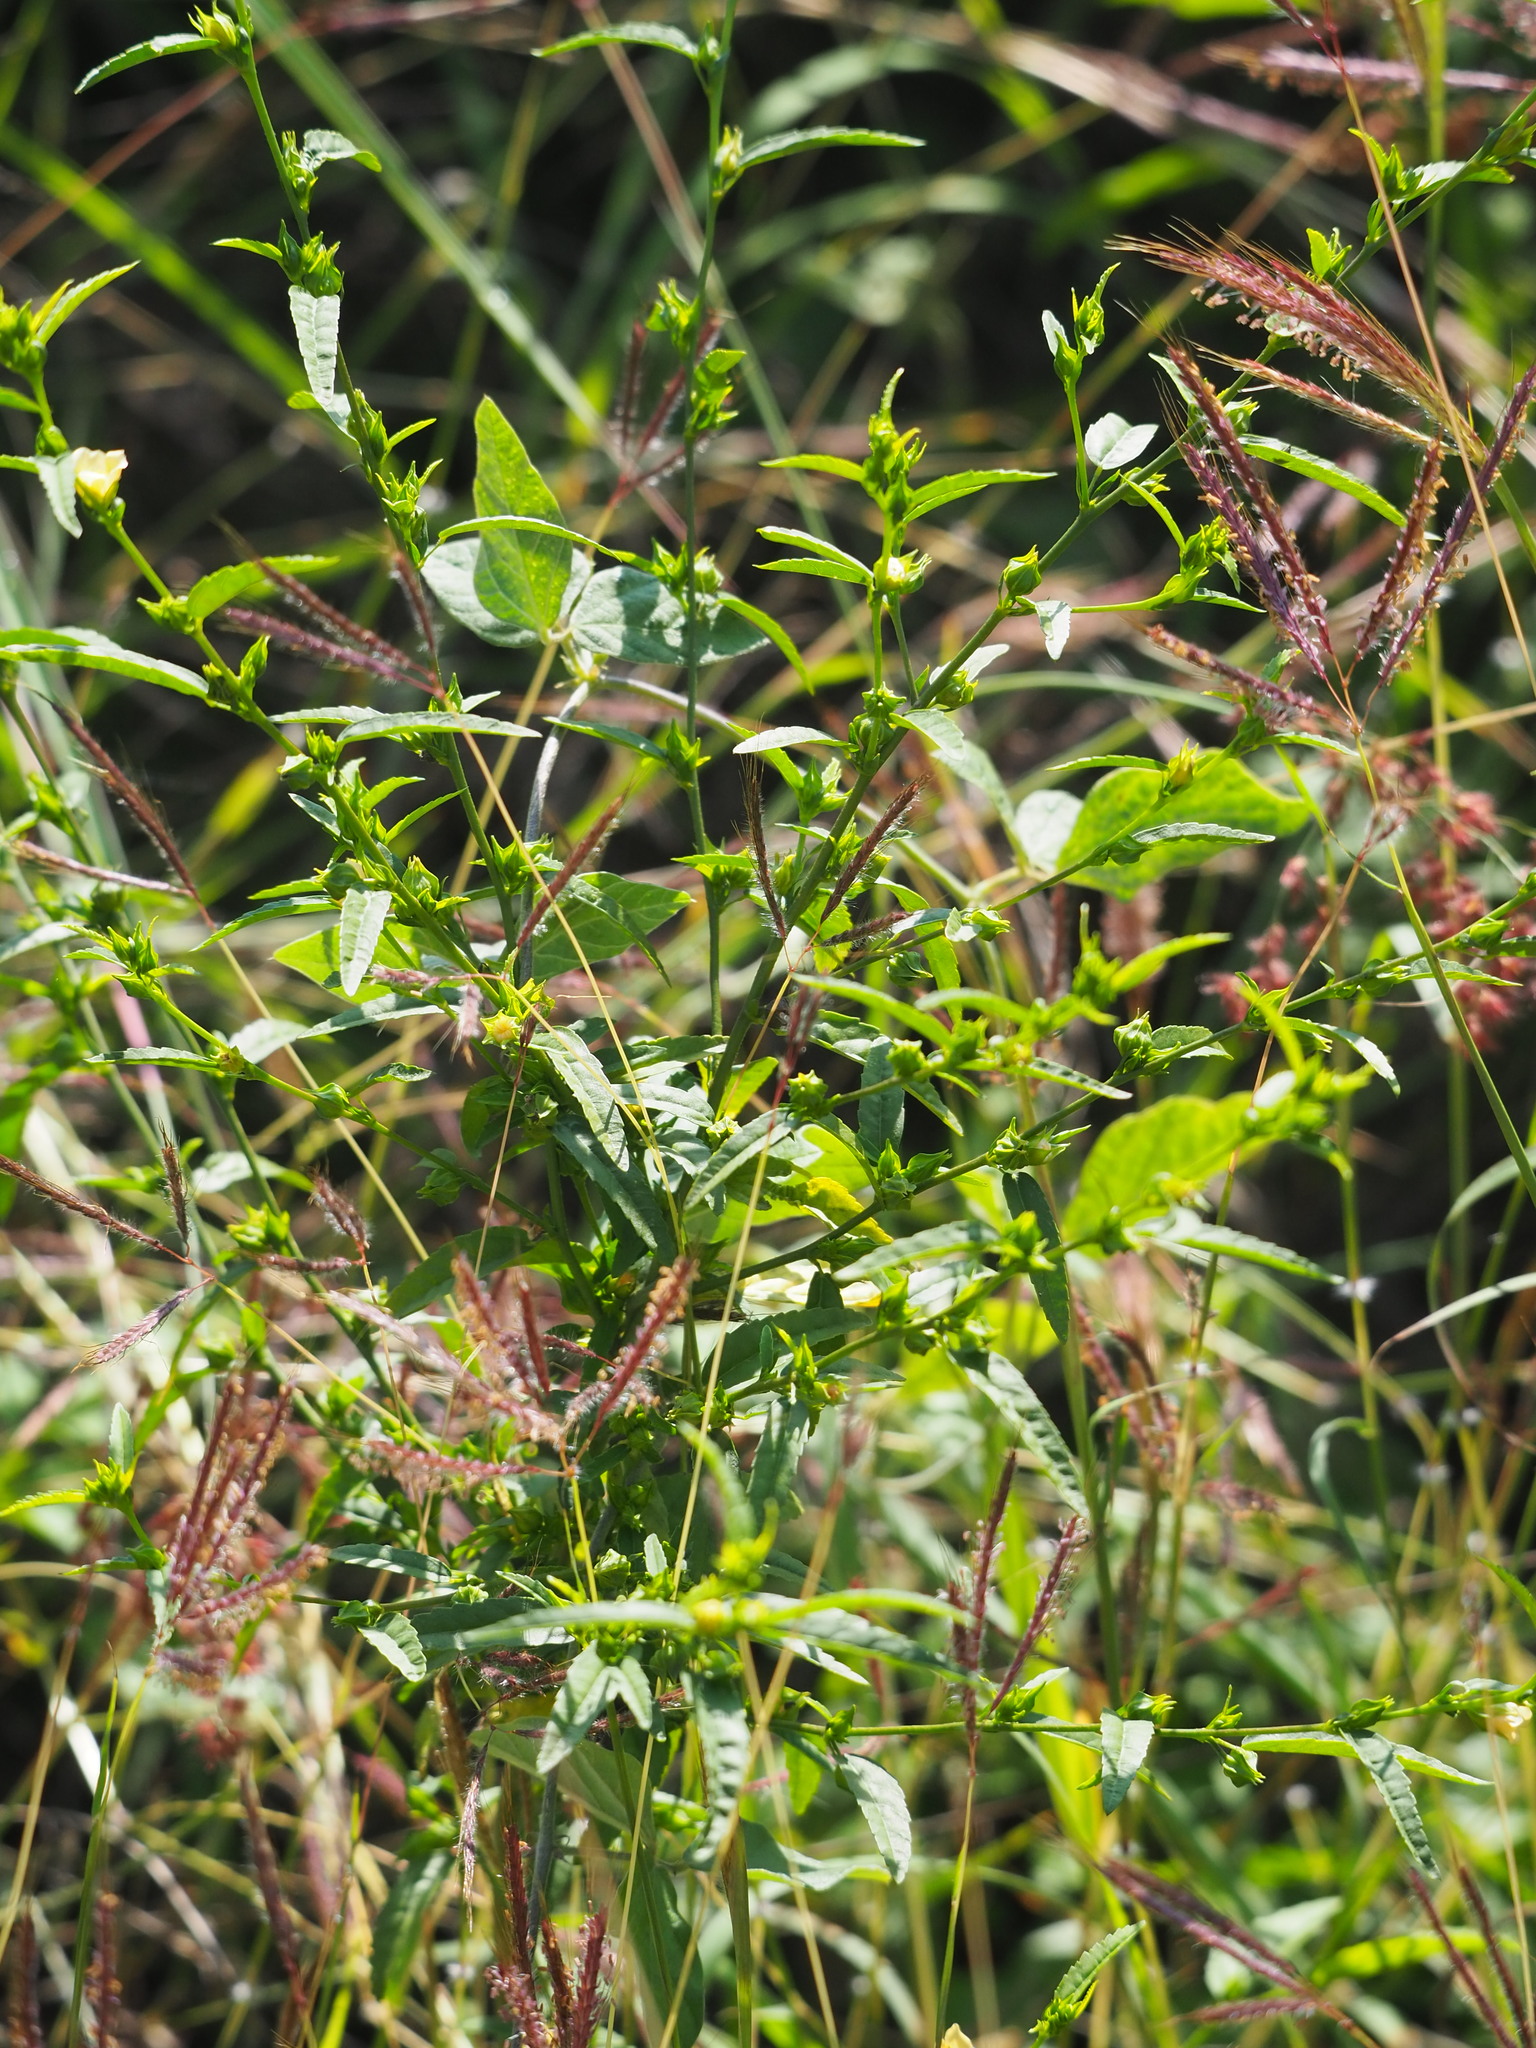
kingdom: Plantae
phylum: Tracheophyta
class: Magnoliopsida
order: Malvales
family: Malvaceae
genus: Sida
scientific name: Sida acuta
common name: Common wireweed
